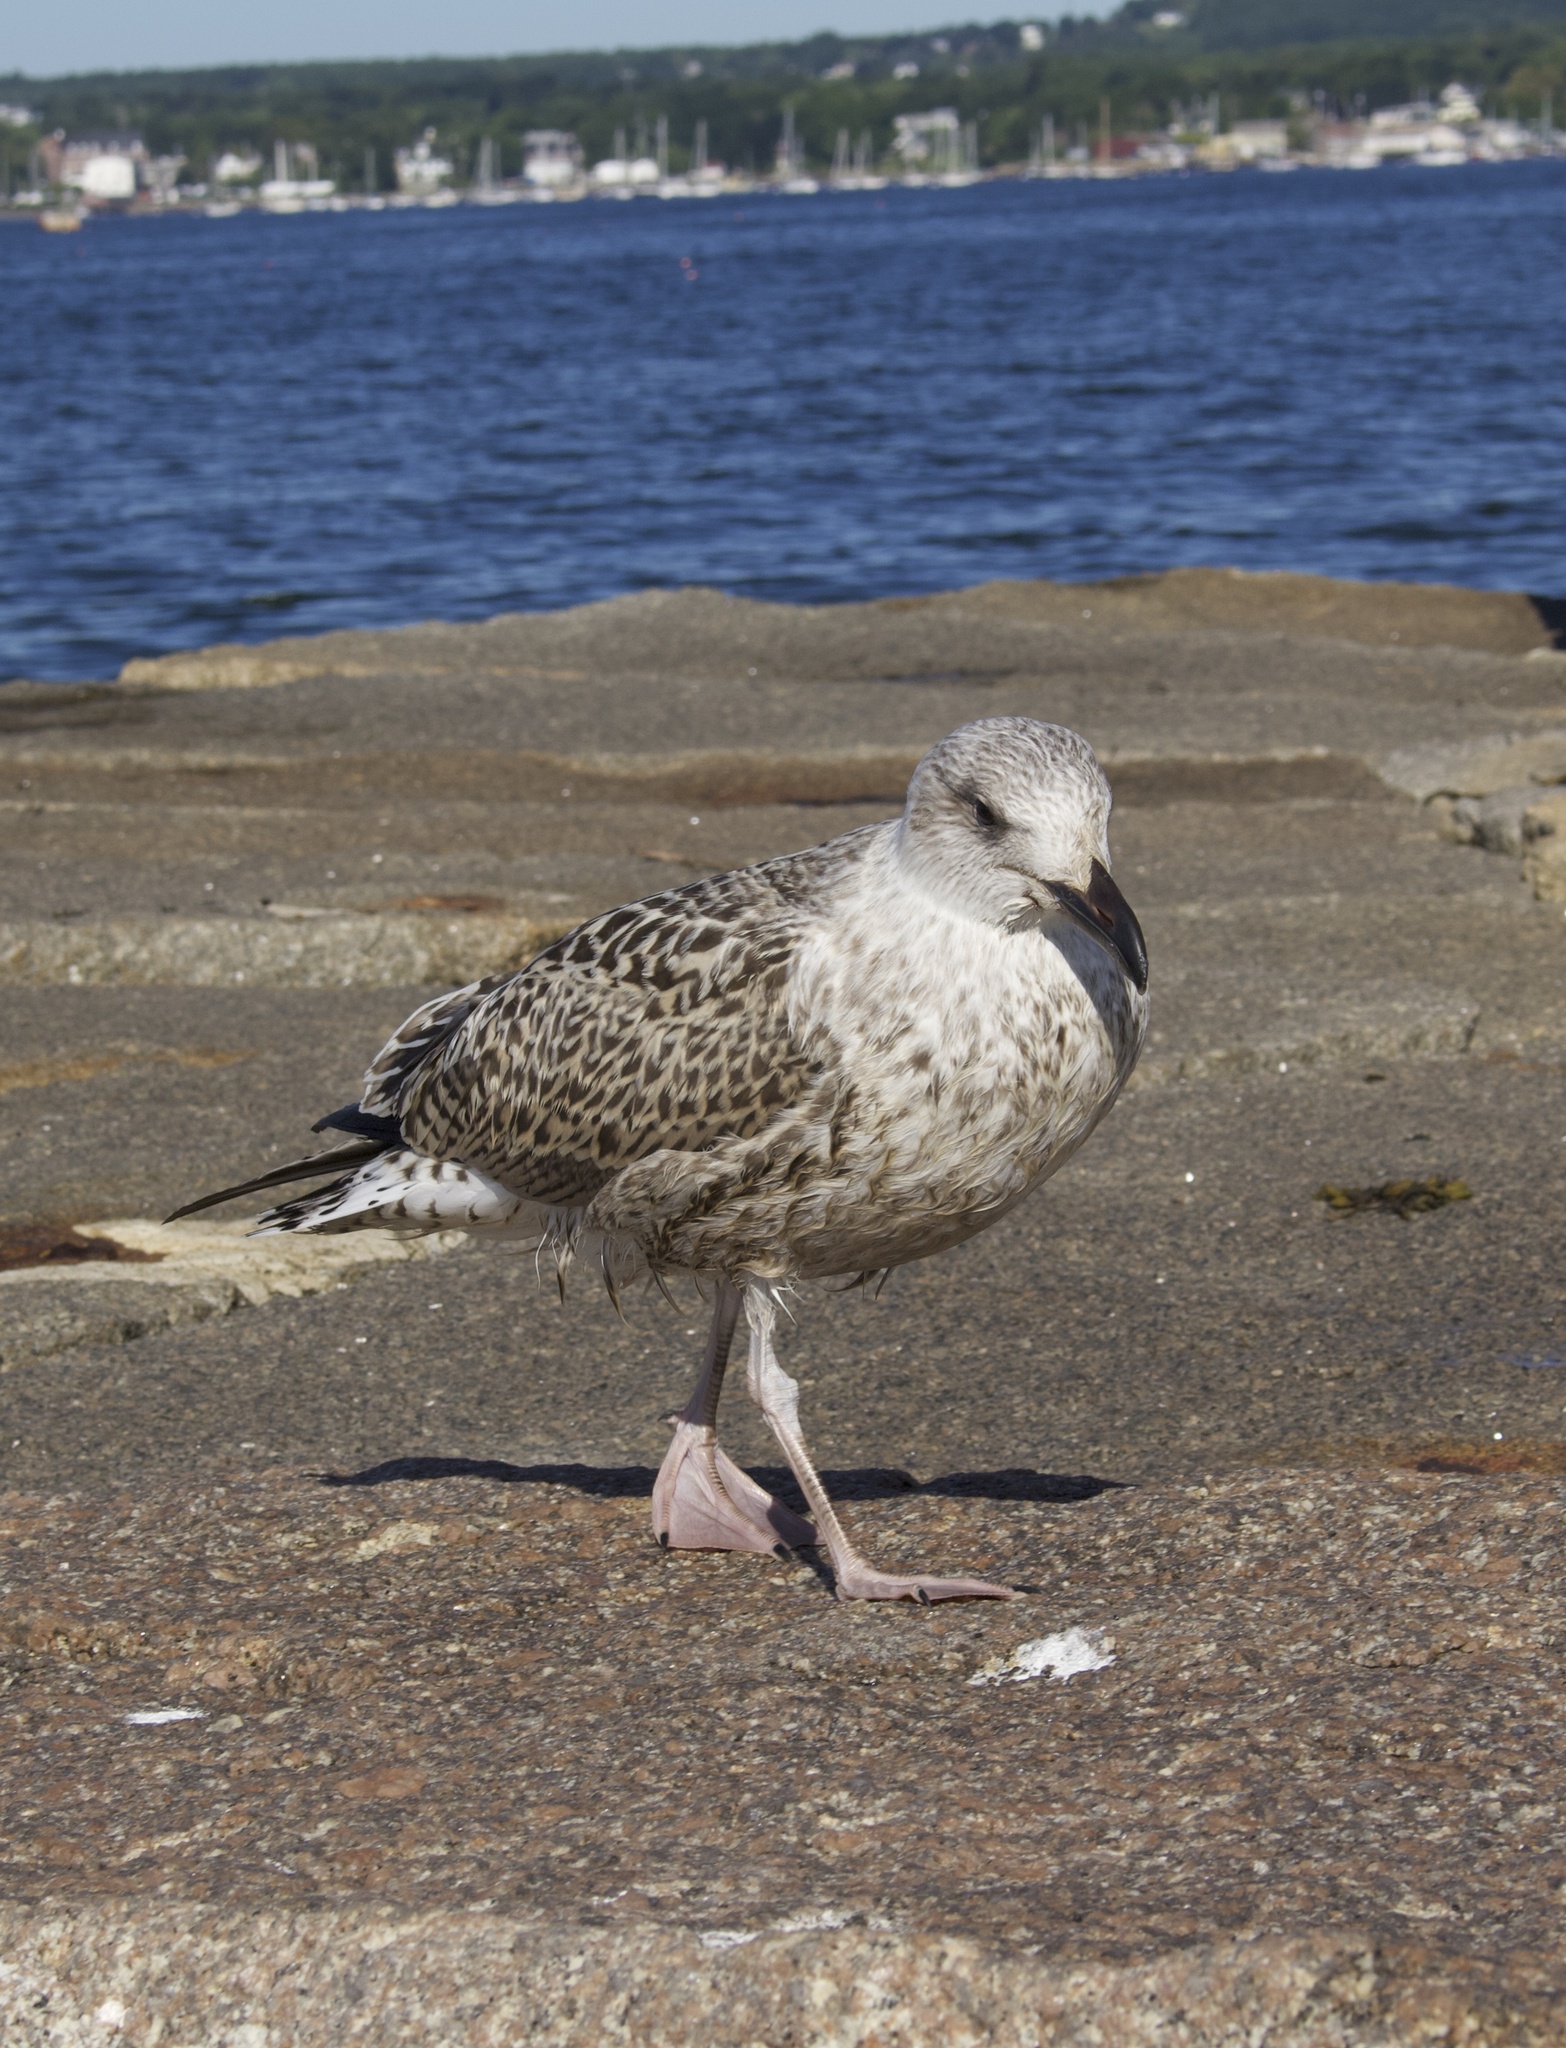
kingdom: Animalia
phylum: Chordata
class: Aves
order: Charadriiformes
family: Laridae
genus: Larus
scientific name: Larus marinus
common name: Great black-backed gull
